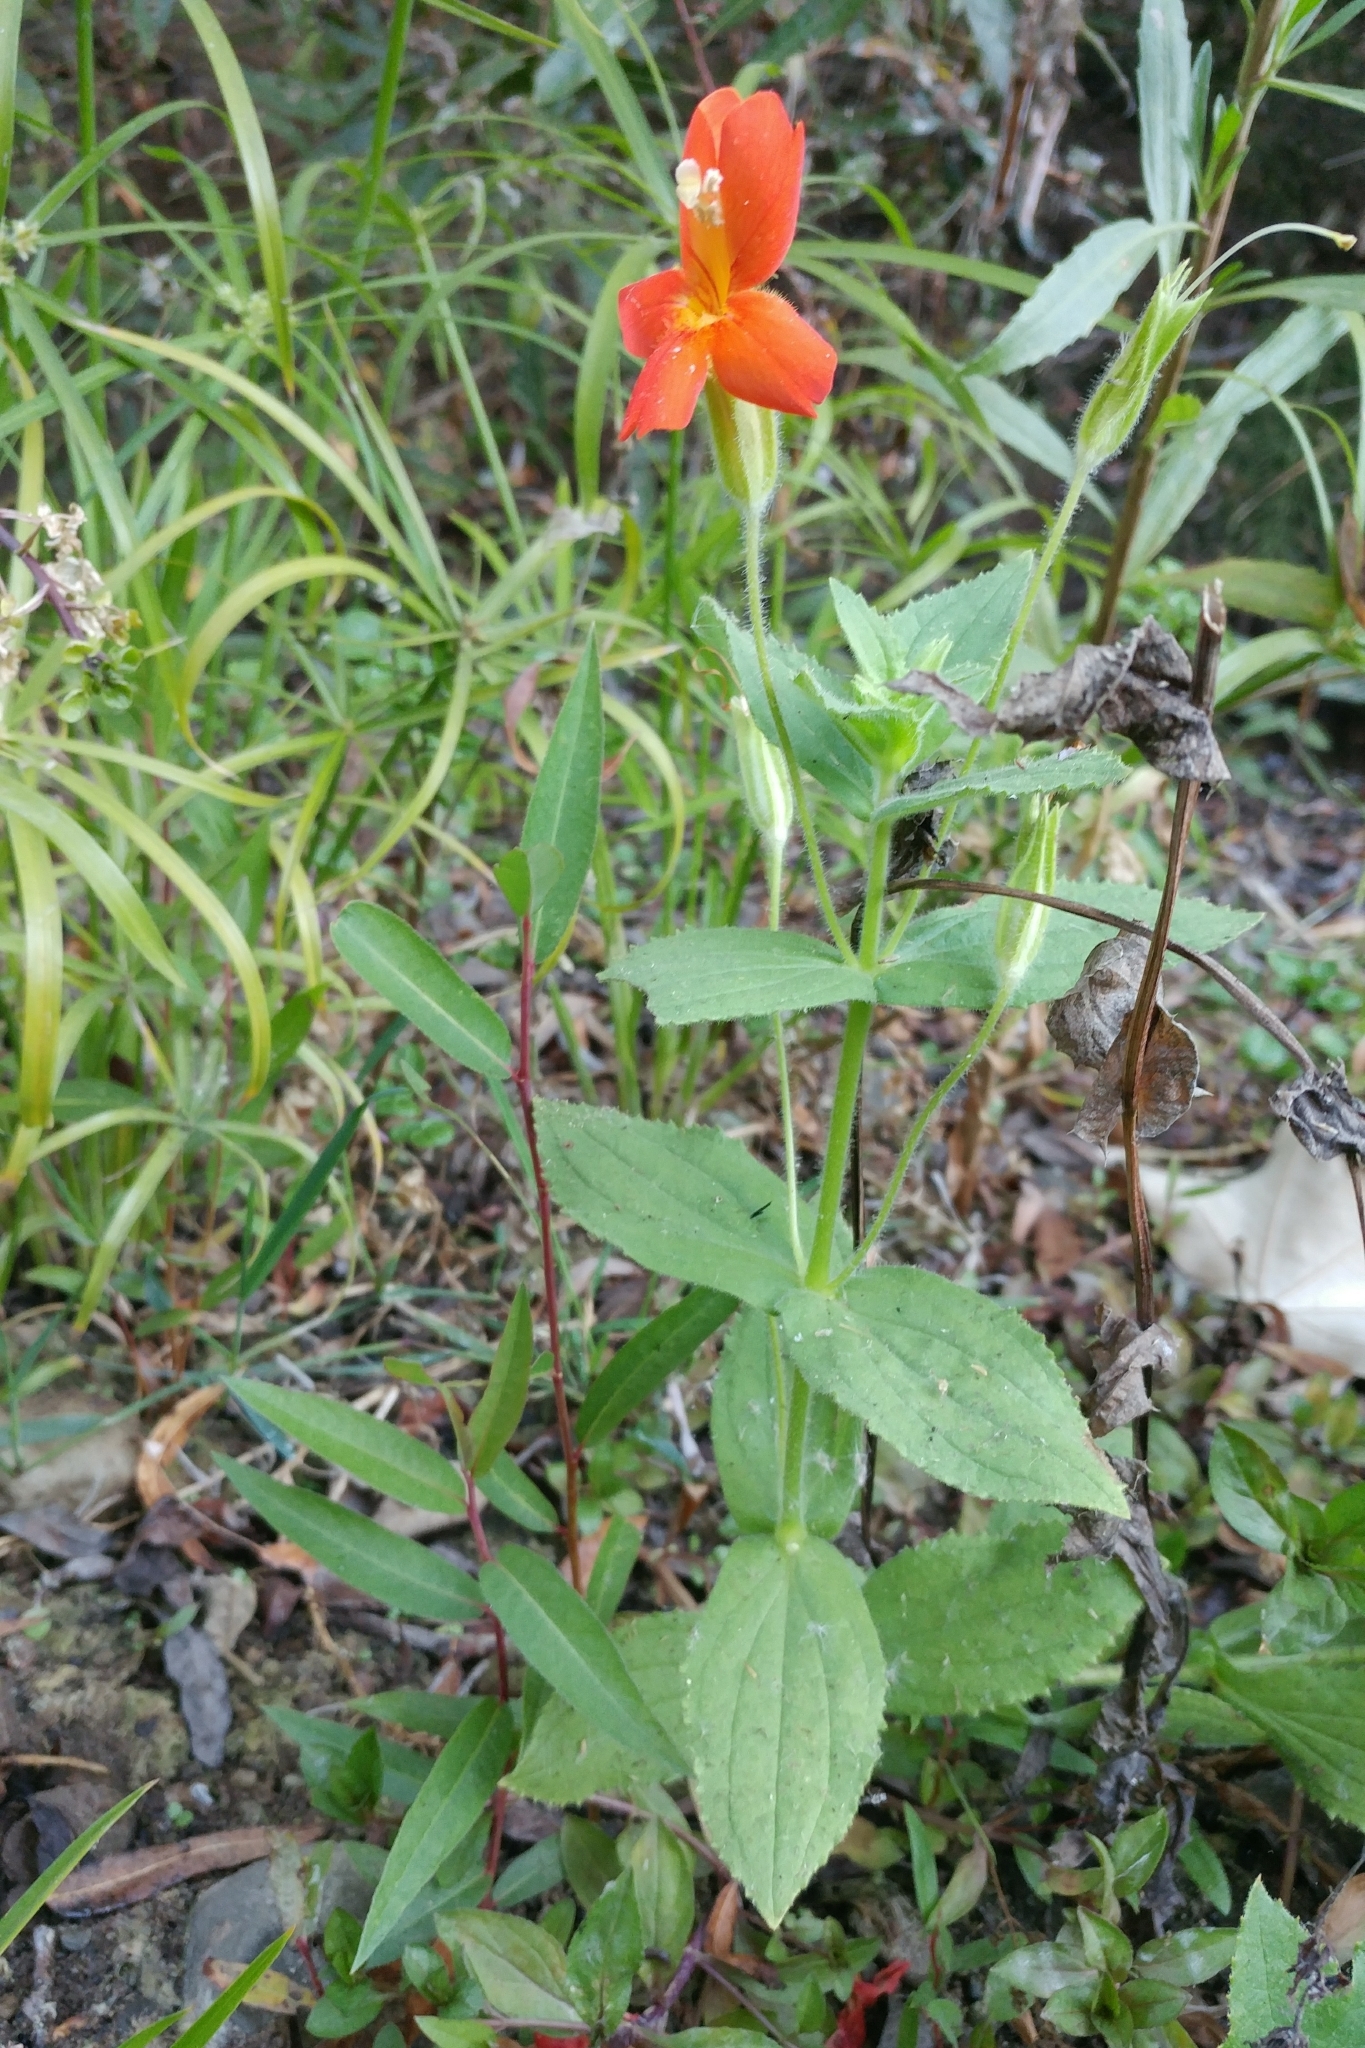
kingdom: Plantae
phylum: Tracheophyta
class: Magnoliopsida
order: Lamiales
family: Phrymaceae
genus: Erythranthe
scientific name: Erythranthe cardinalis
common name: Scarlet monkey-flower
